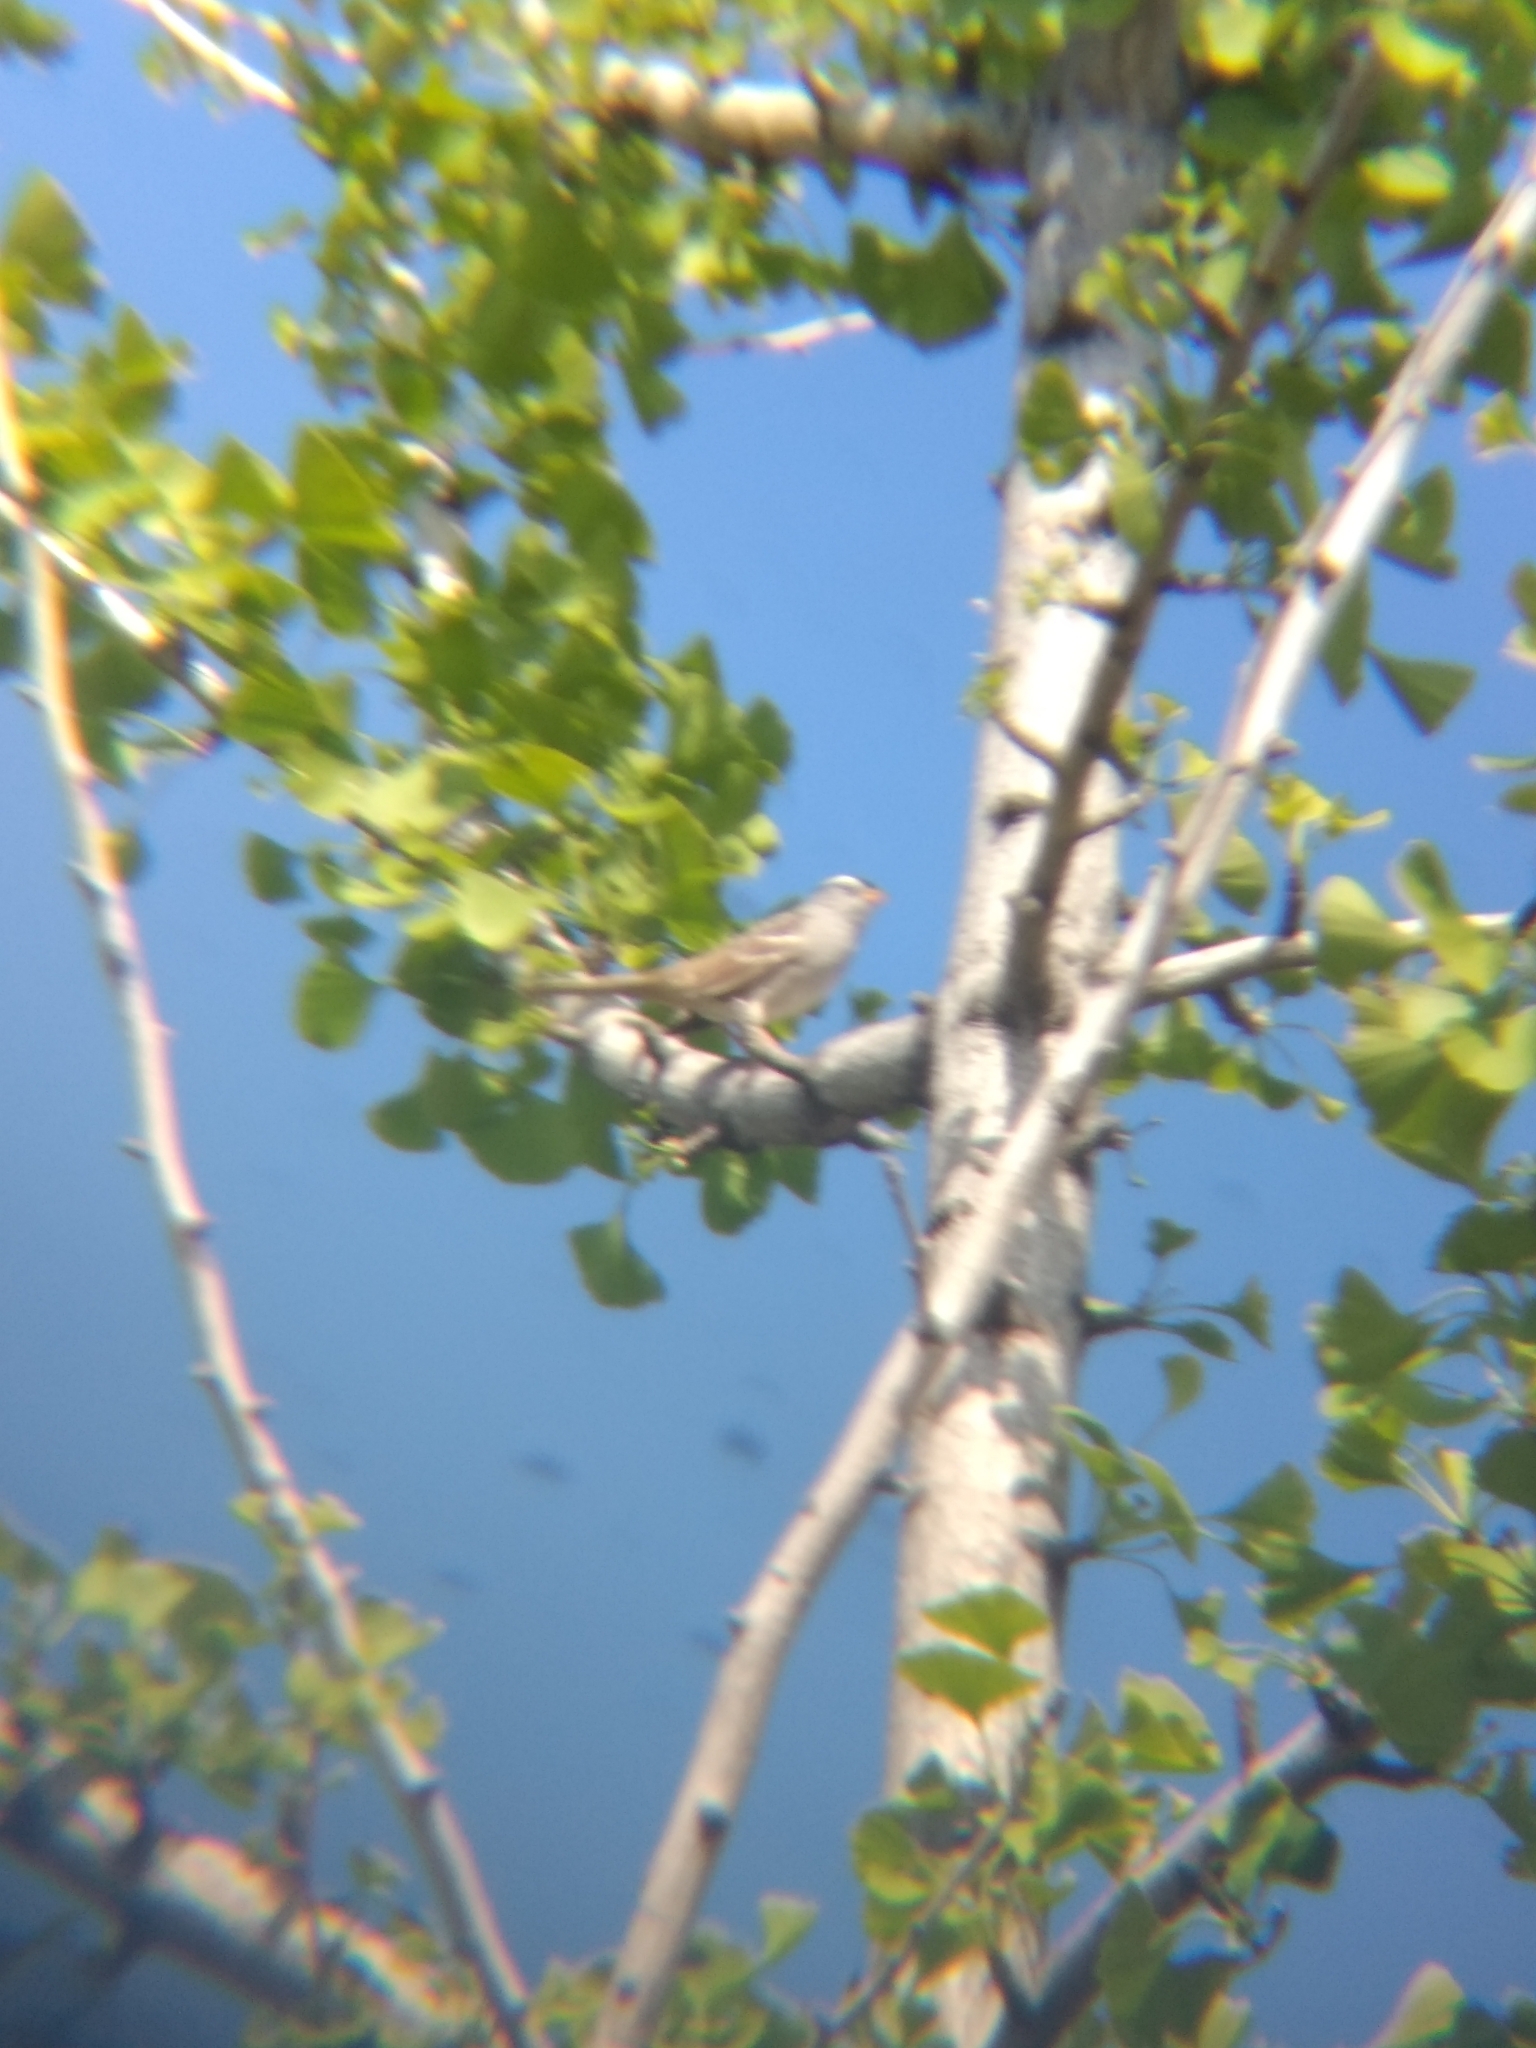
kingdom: Animalia
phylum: Chordata
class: Aves
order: Passeriformes
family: Passerellidae
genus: Zonotrichia
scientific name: Zonotrichia leucophrys
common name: White-crowned sparrow
